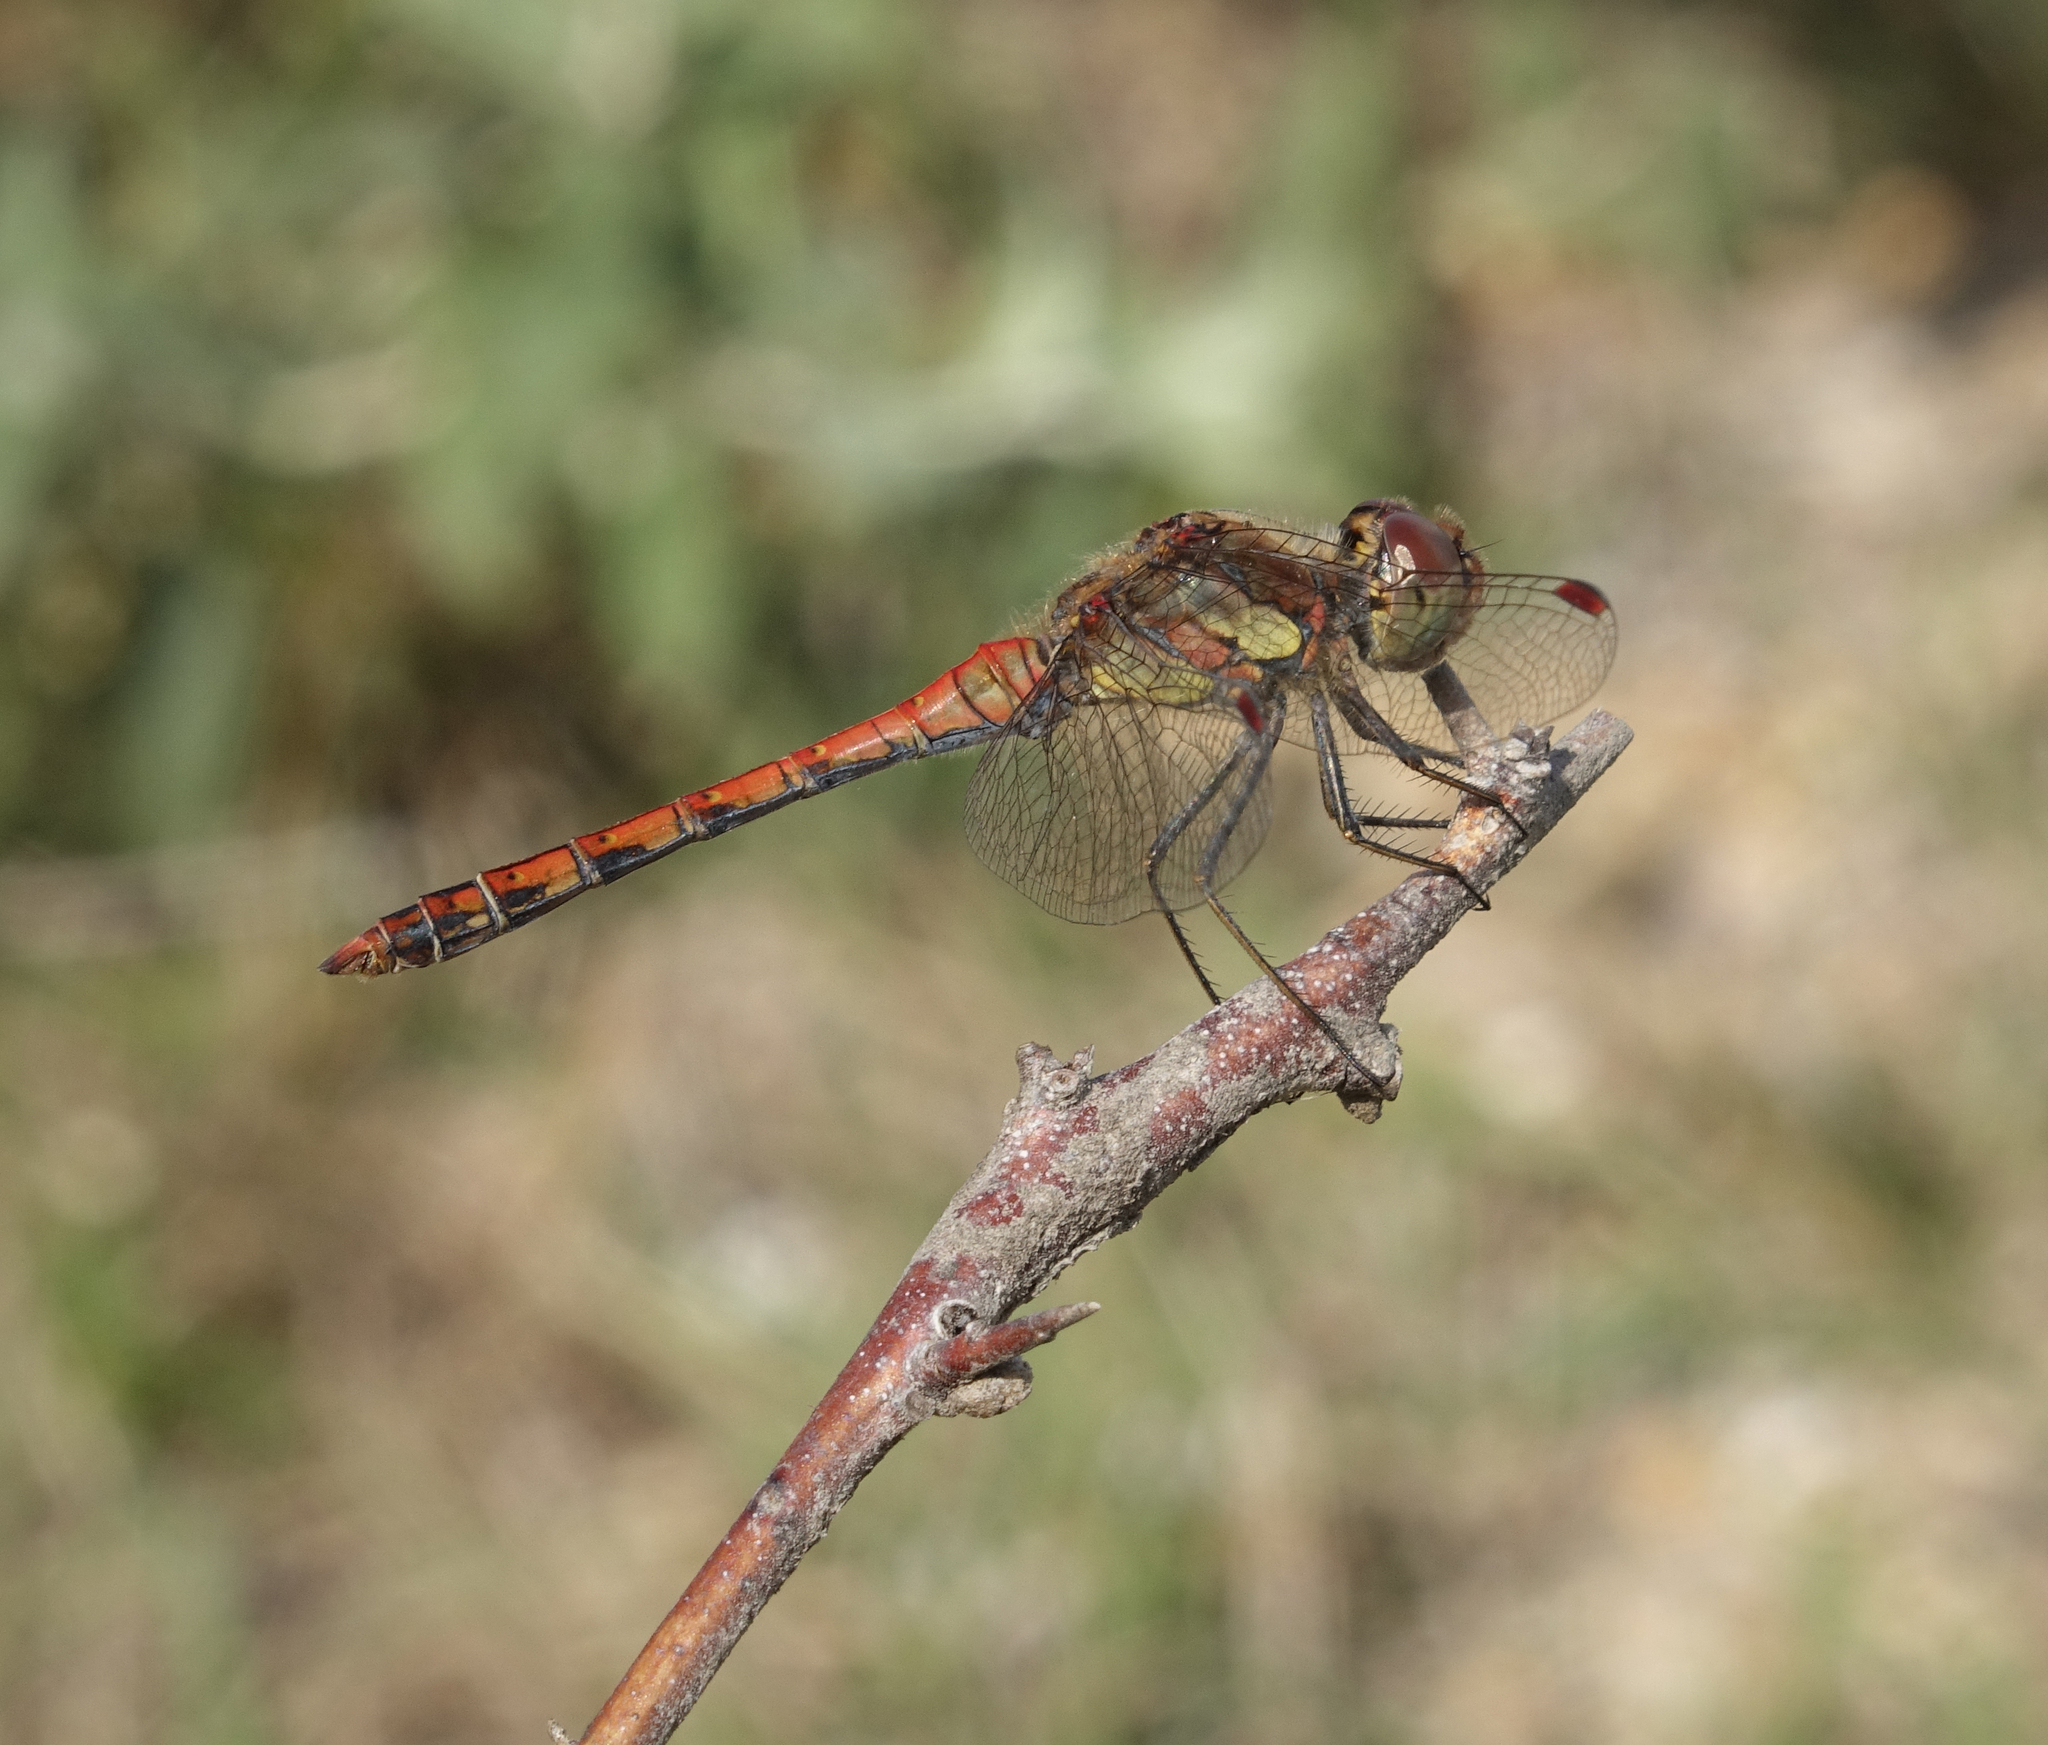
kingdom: Animalia
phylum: Arthropoda
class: Insecta
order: Odonata
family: Libellulidae
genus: Sympetrum
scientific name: Sympetrum striolatum
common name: Common darter
